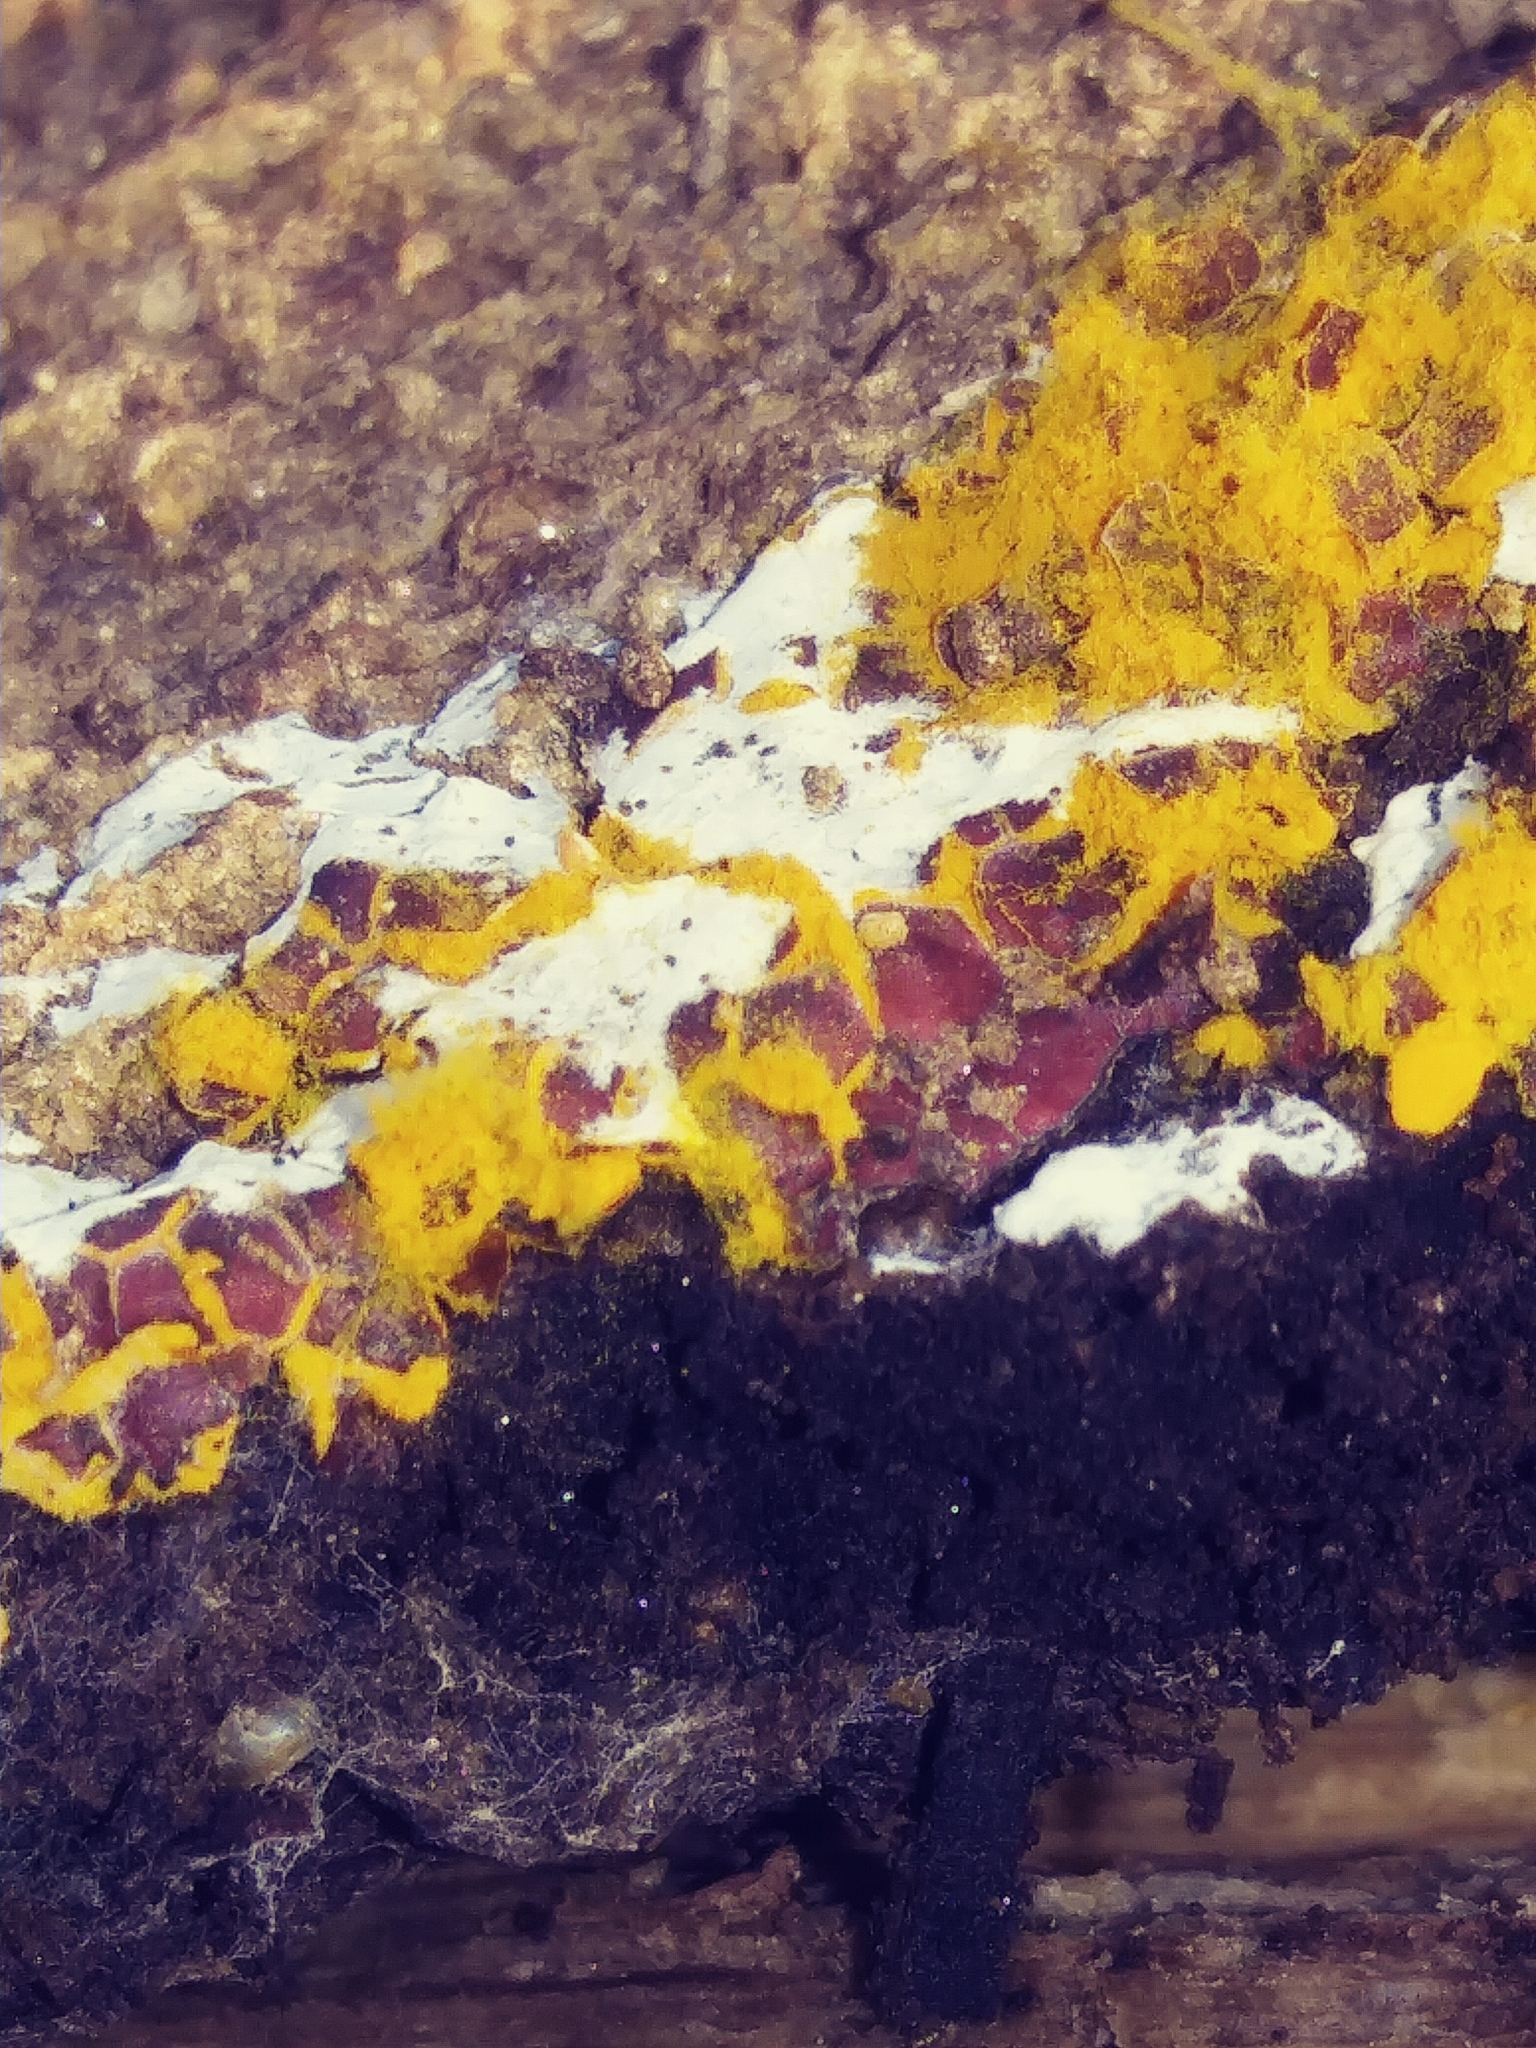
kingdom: Protozoa
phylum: Mycetozoa
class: Myxomycetes
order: Trichiales
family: Trichiaceae
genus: Perichaena
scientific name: Perichaena corticalis
